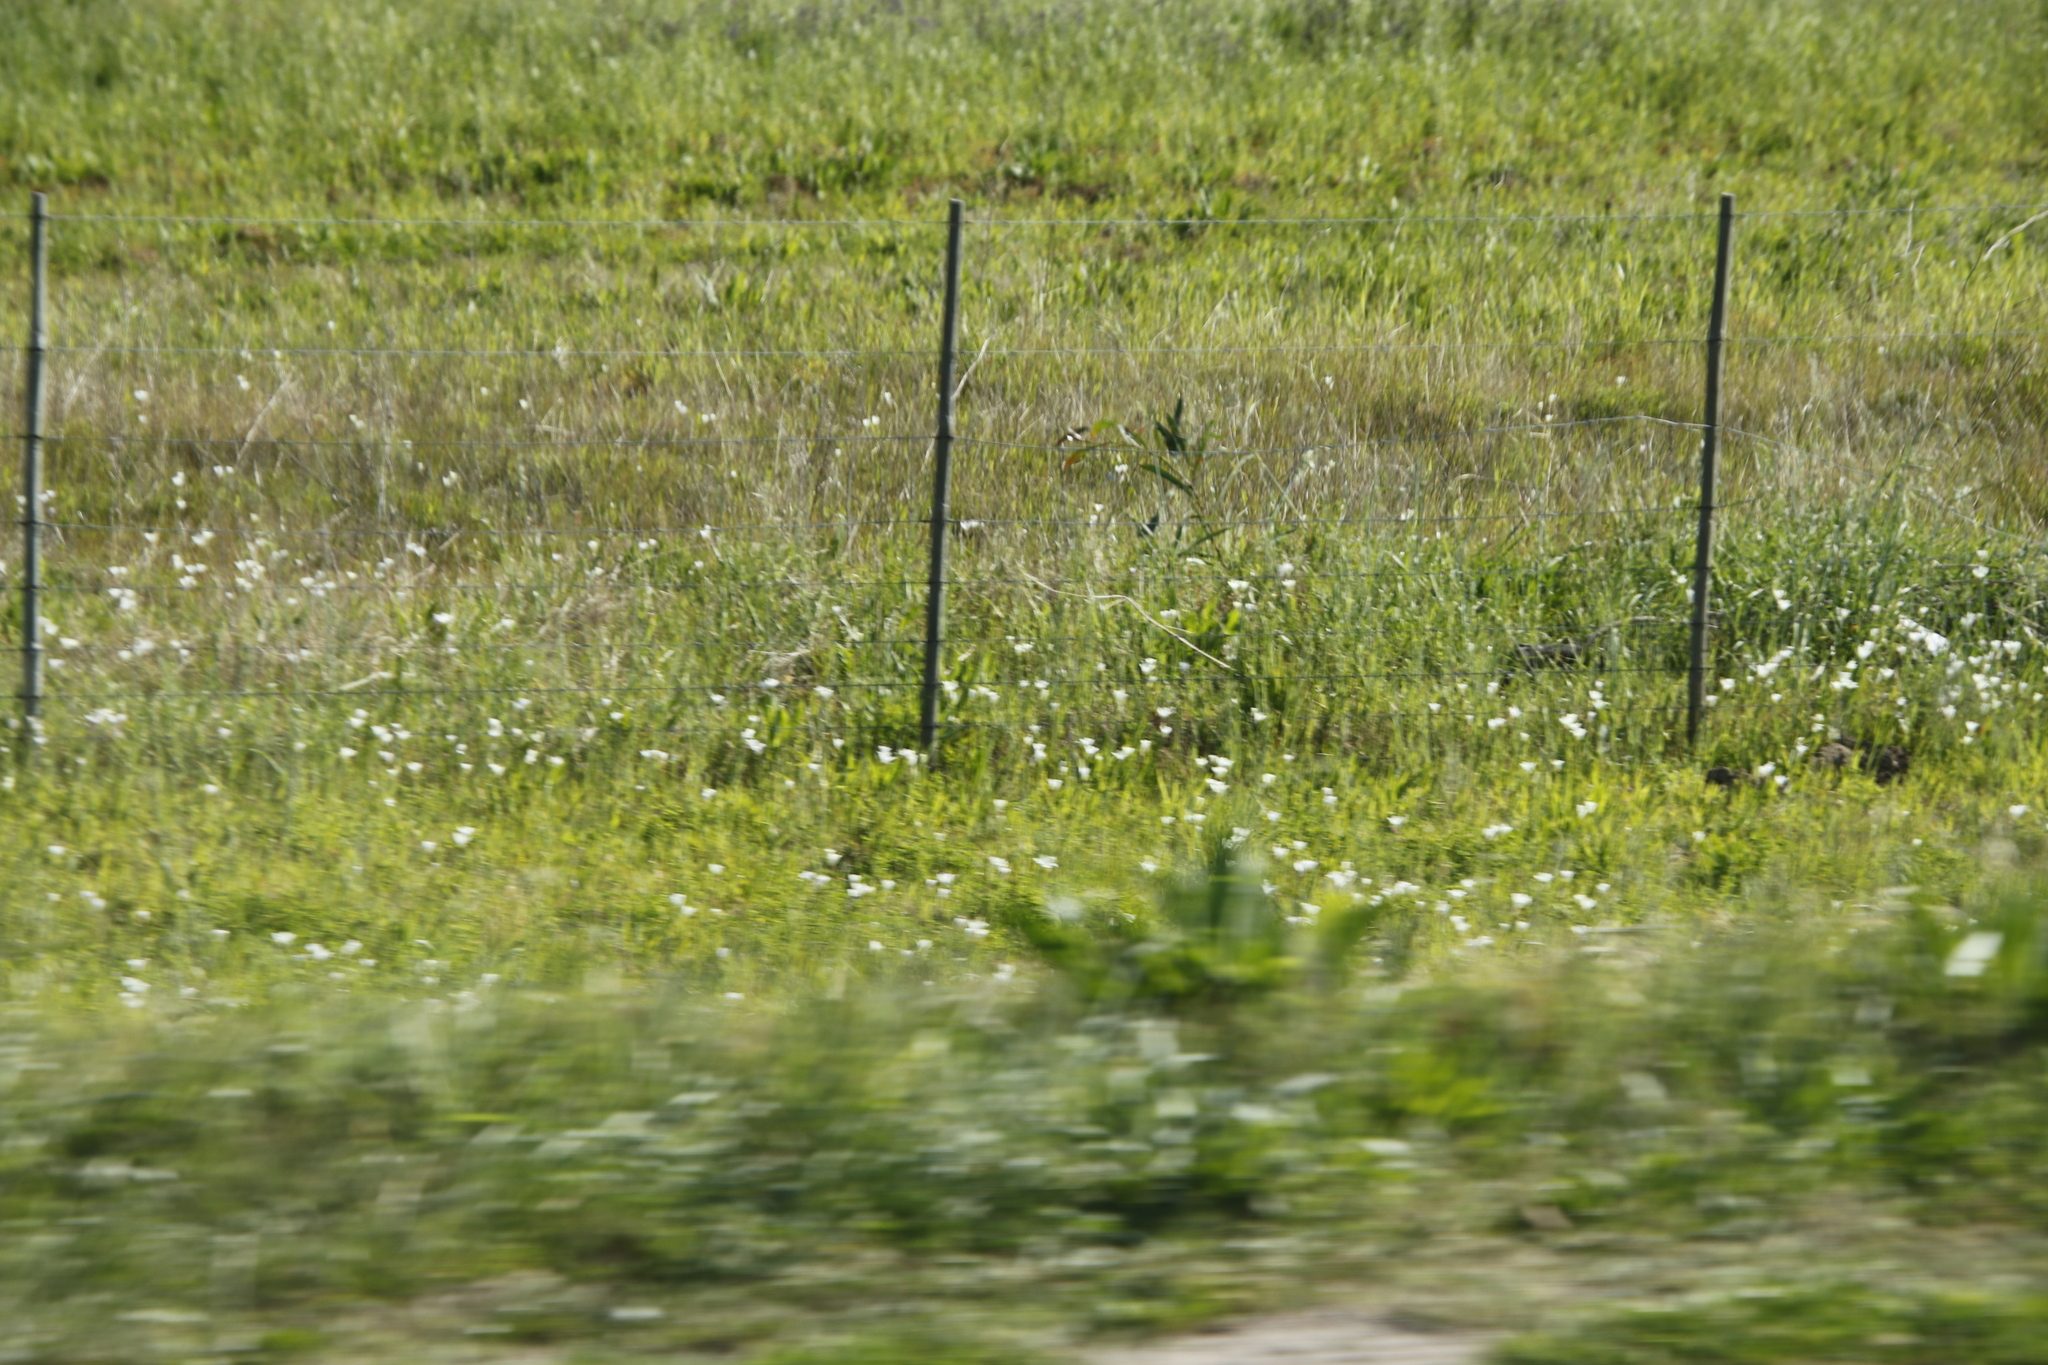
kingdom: Plantae
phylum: Tracheophyta
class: Liliopsida
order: Asparagales
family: Iridaceae
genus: Sparaxis
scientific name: Sparaxis bulbifera
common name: Harlequin-flower
